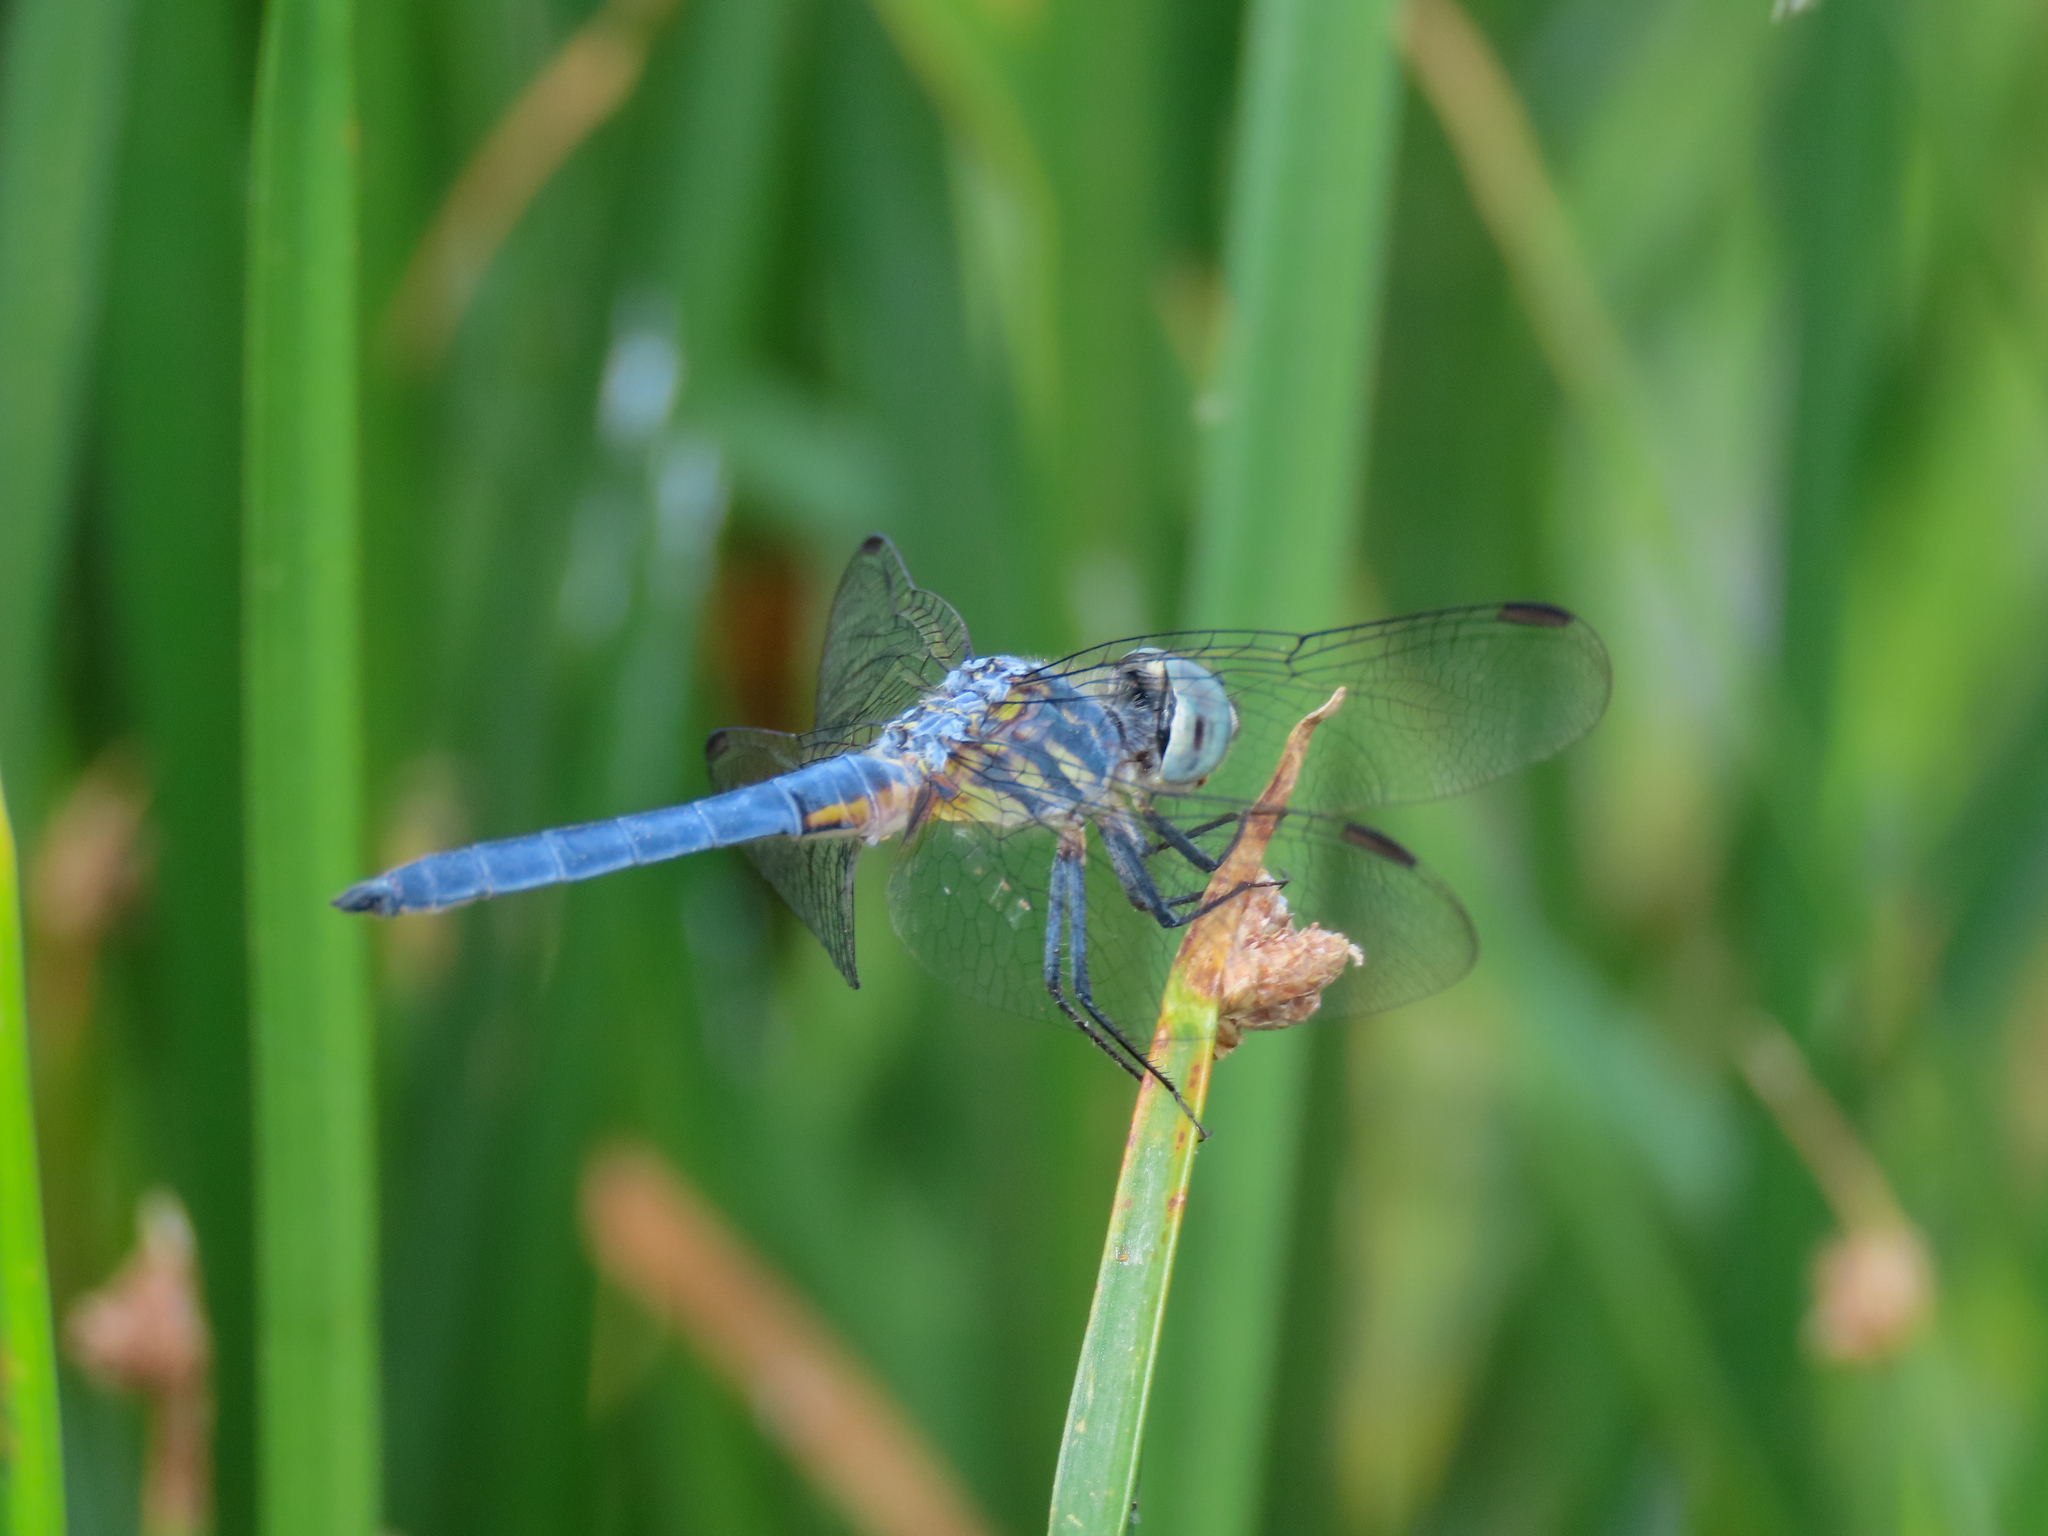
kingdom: Animalia
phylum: Arthropoda
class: Insecta
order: Odonata
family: Libellulidae
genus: Pachydiplax
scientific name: Pachydiplax longipennis
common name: Blue dasher
